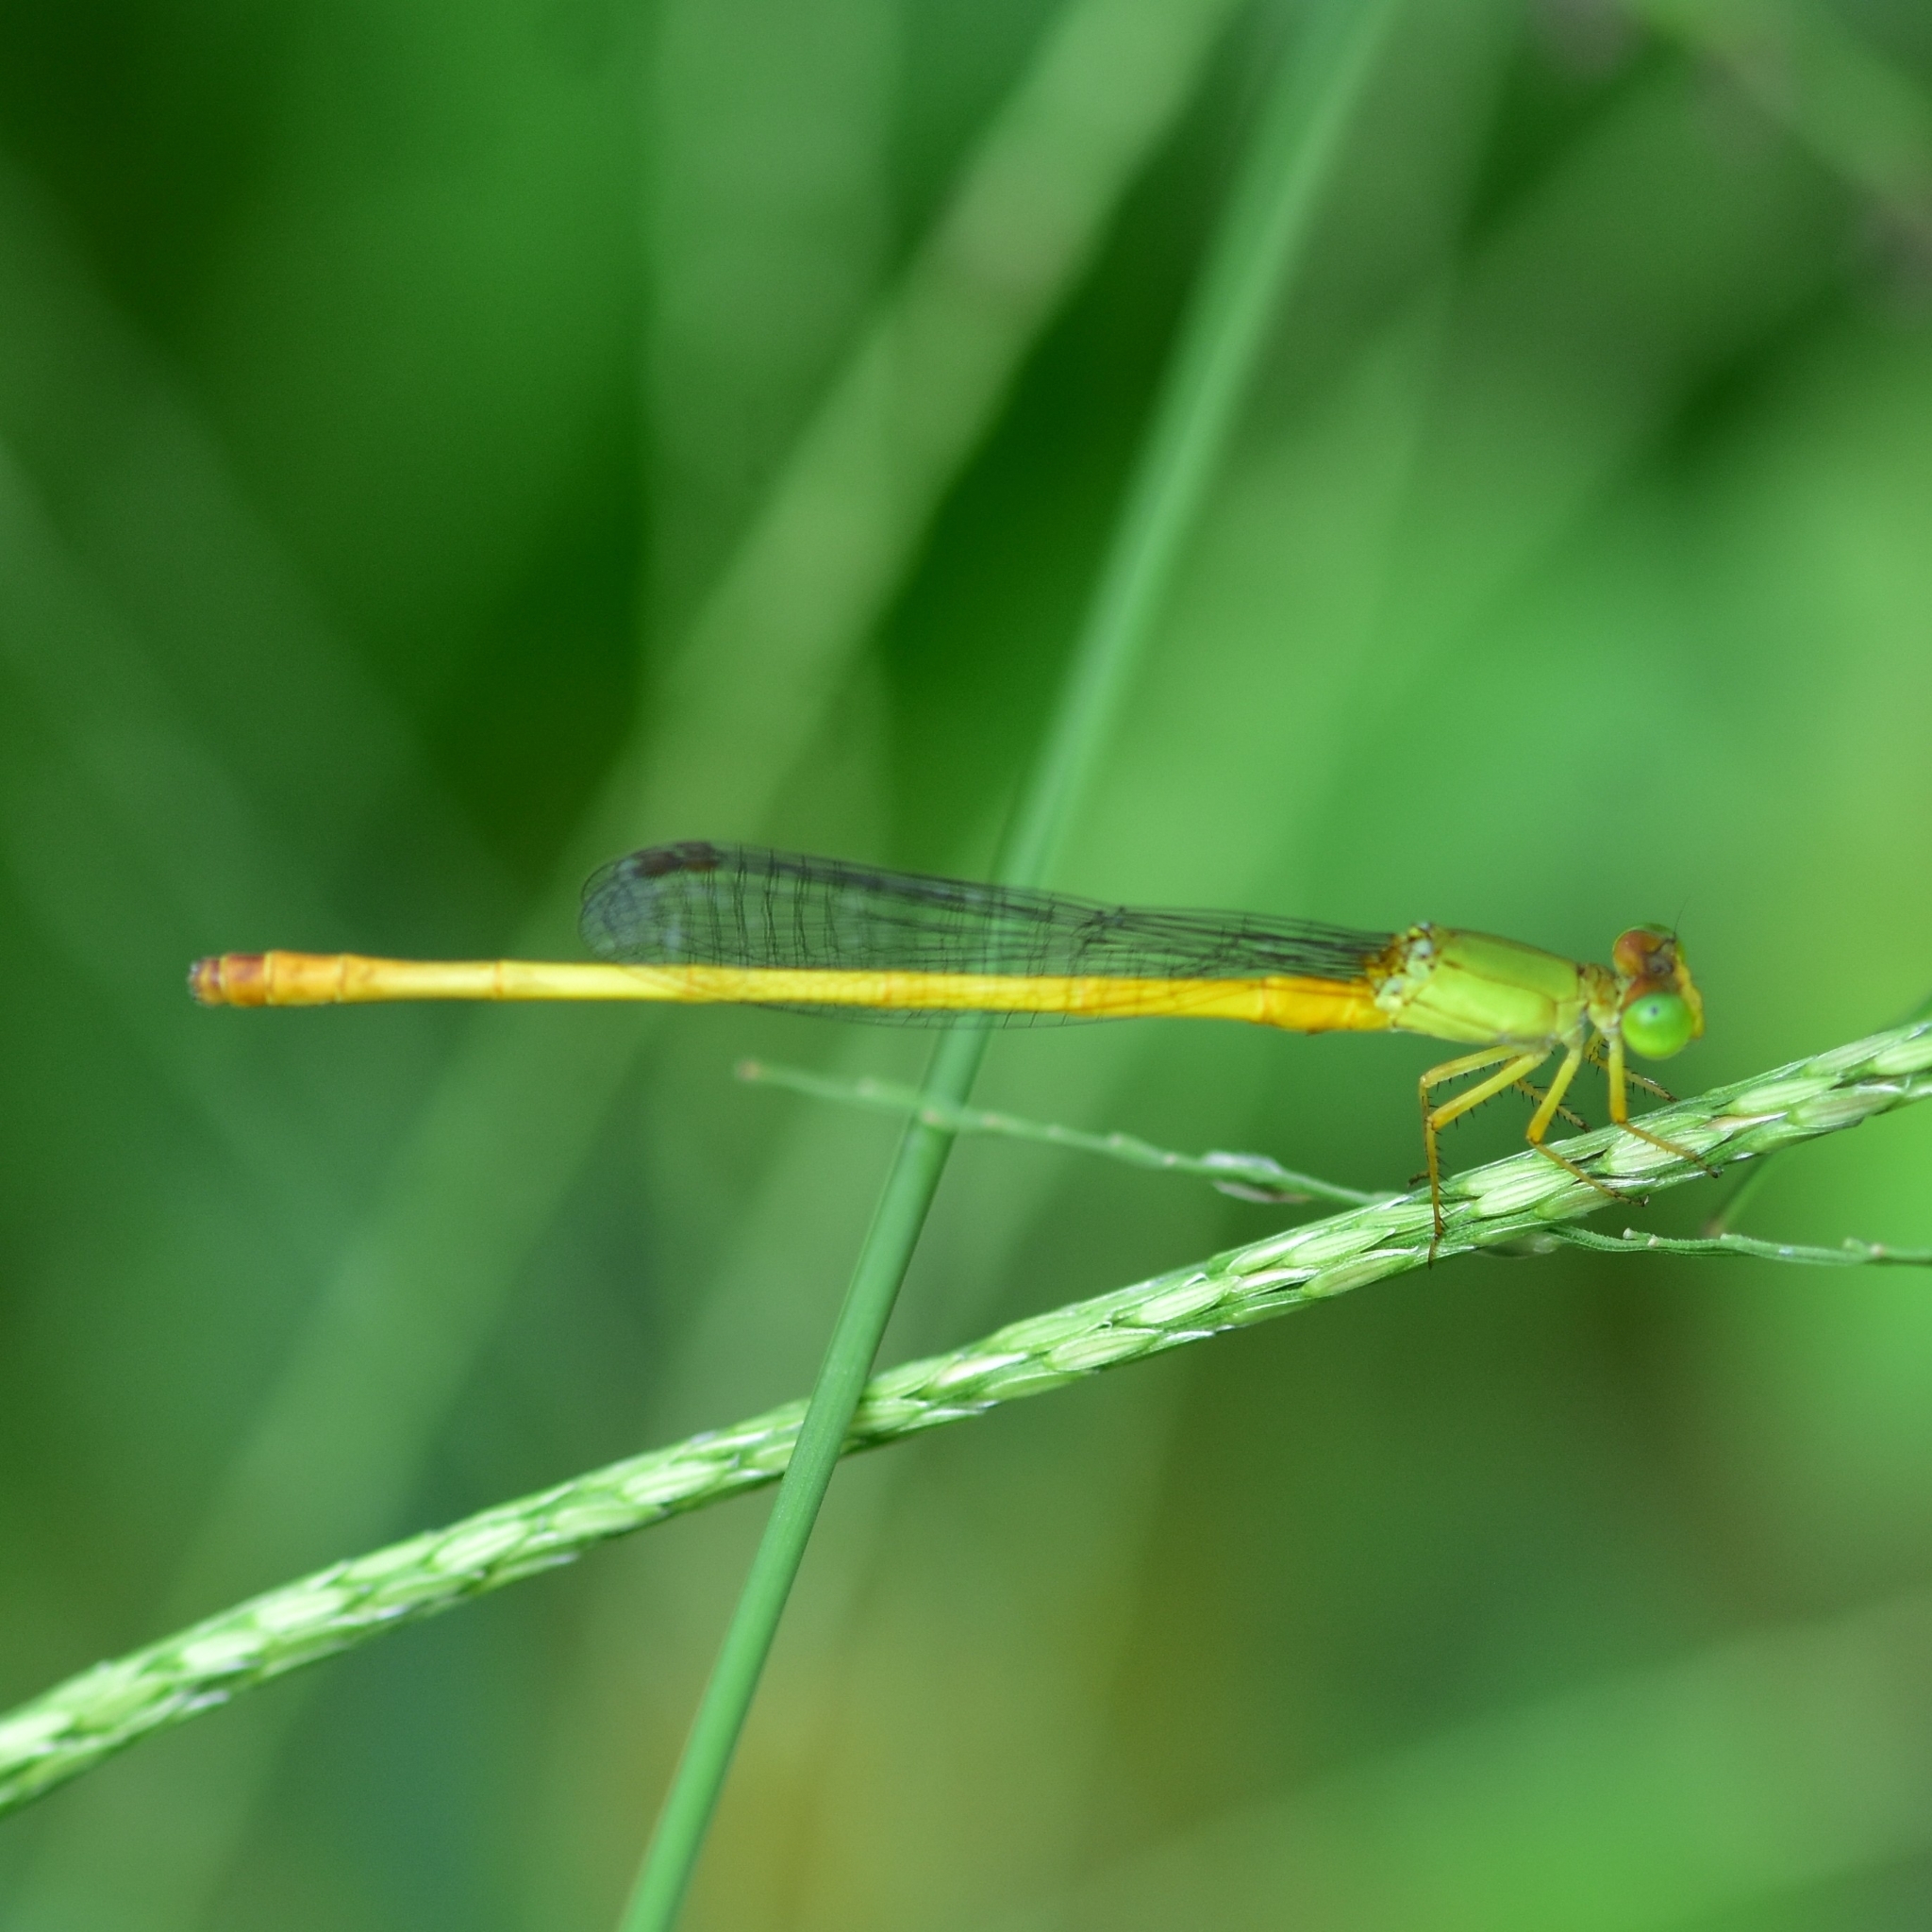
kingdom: Animalia
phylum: Arthropoda
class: Insecta
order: Odonata
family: Coenagrionidae
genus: Ceriagrion
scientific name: Ceriagrion coromandelianum
